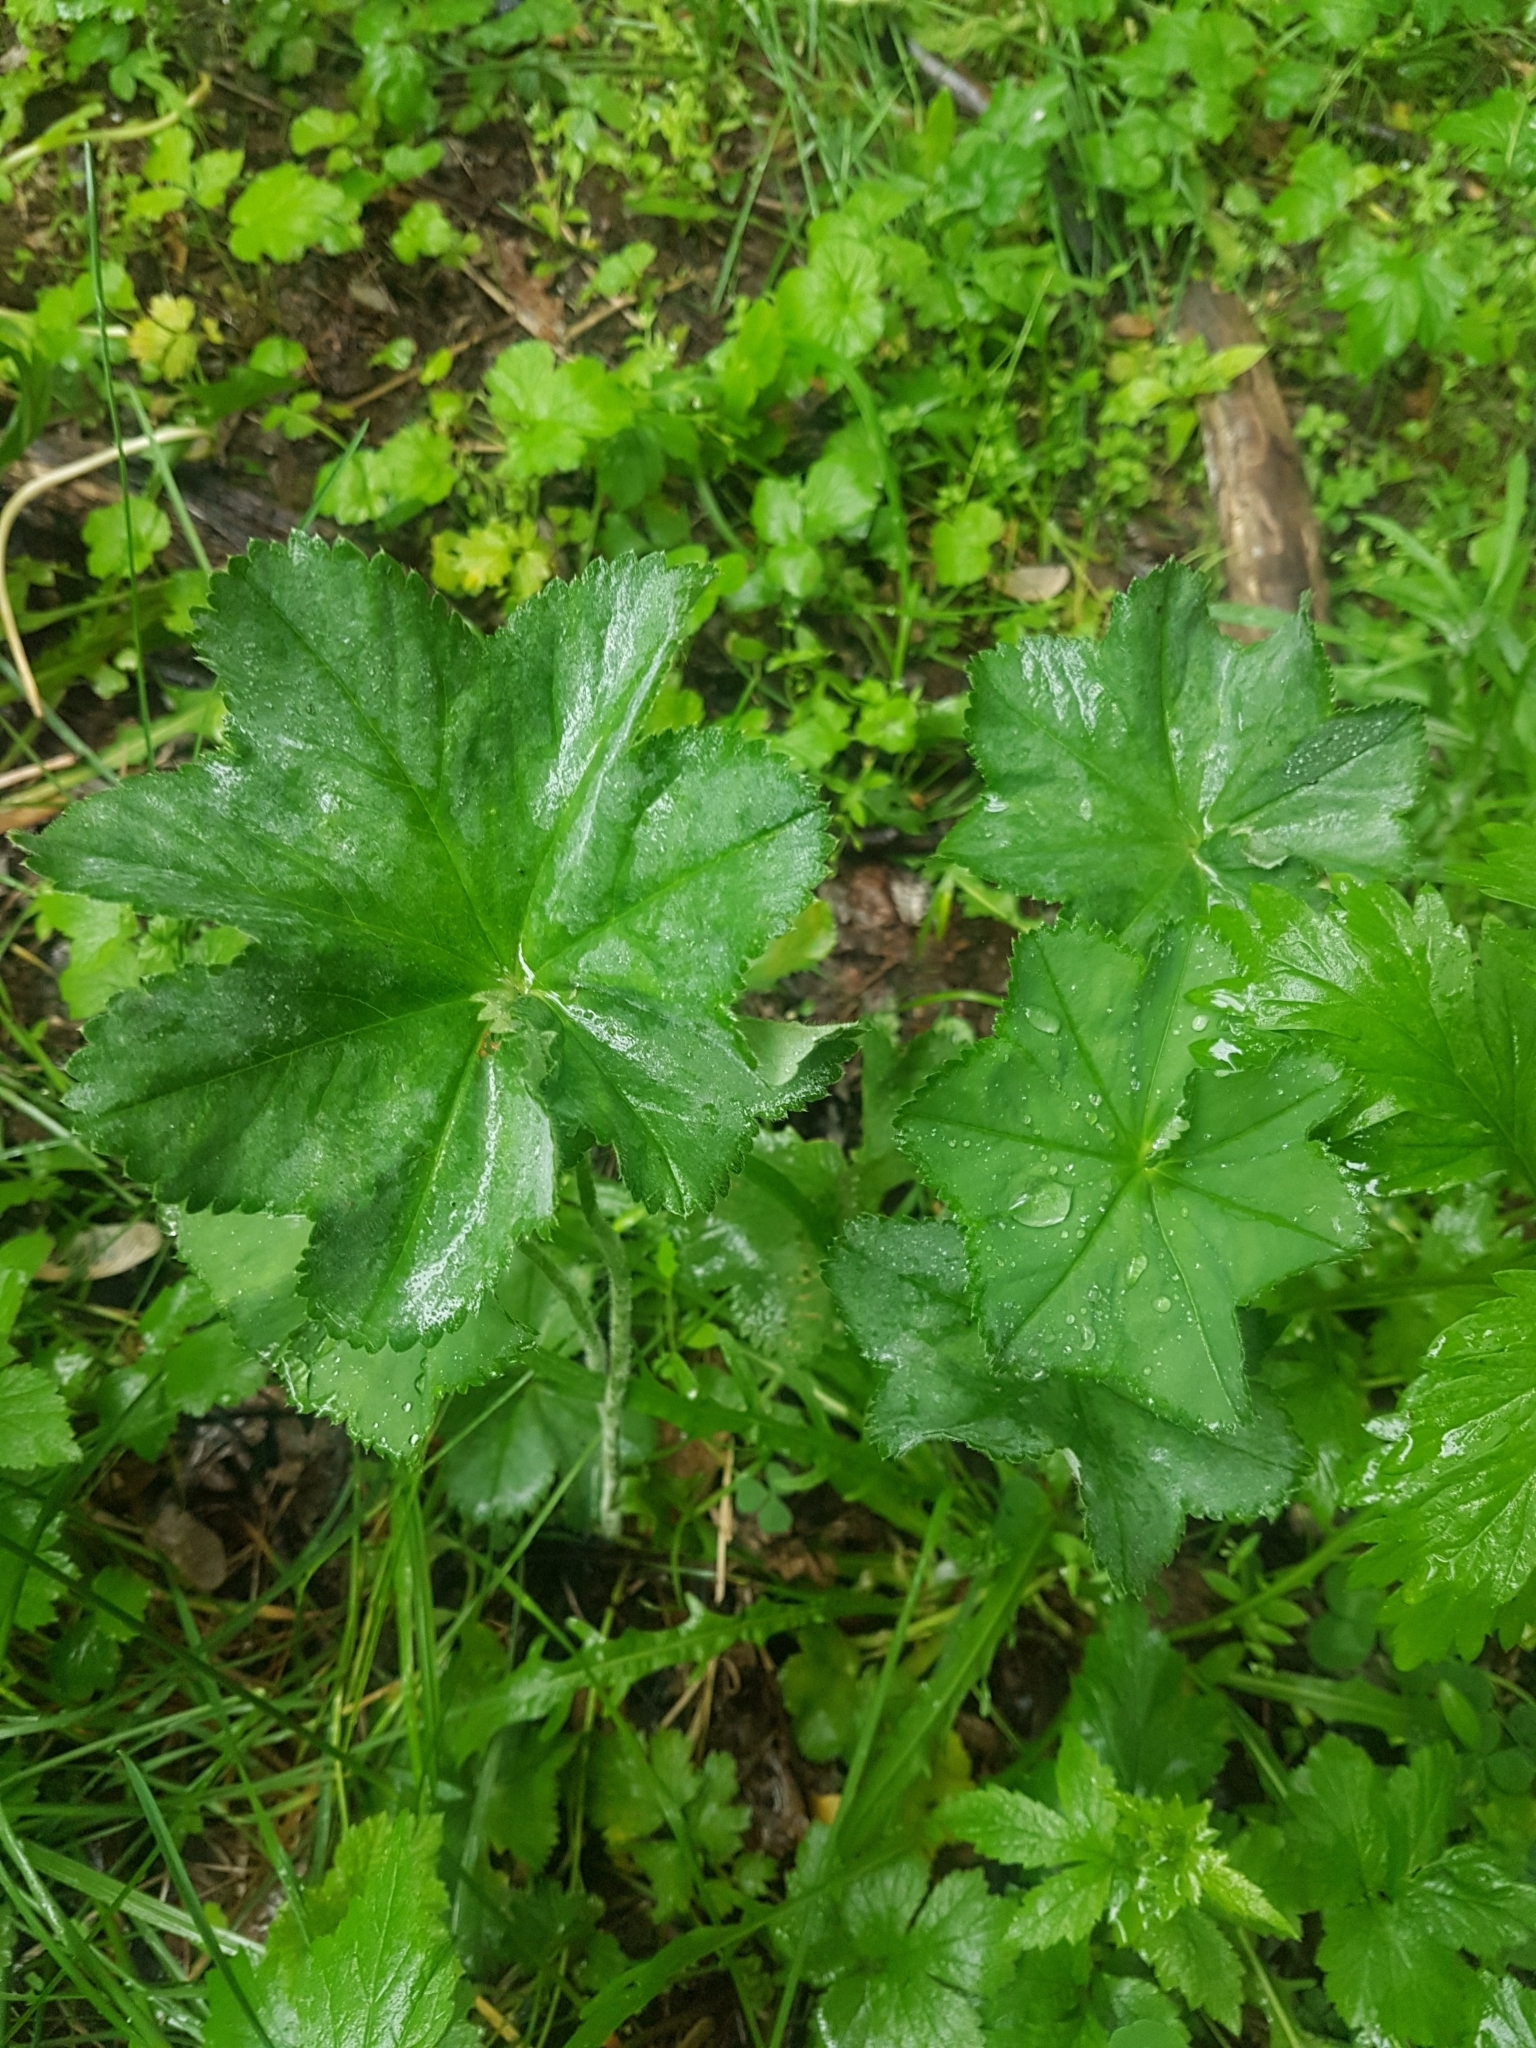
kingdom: Plantae
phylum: Tracheophyta
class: Magnoliopsida
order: Rosales
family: Rosaceae
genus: Alchemilla
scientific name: Alchemilla
